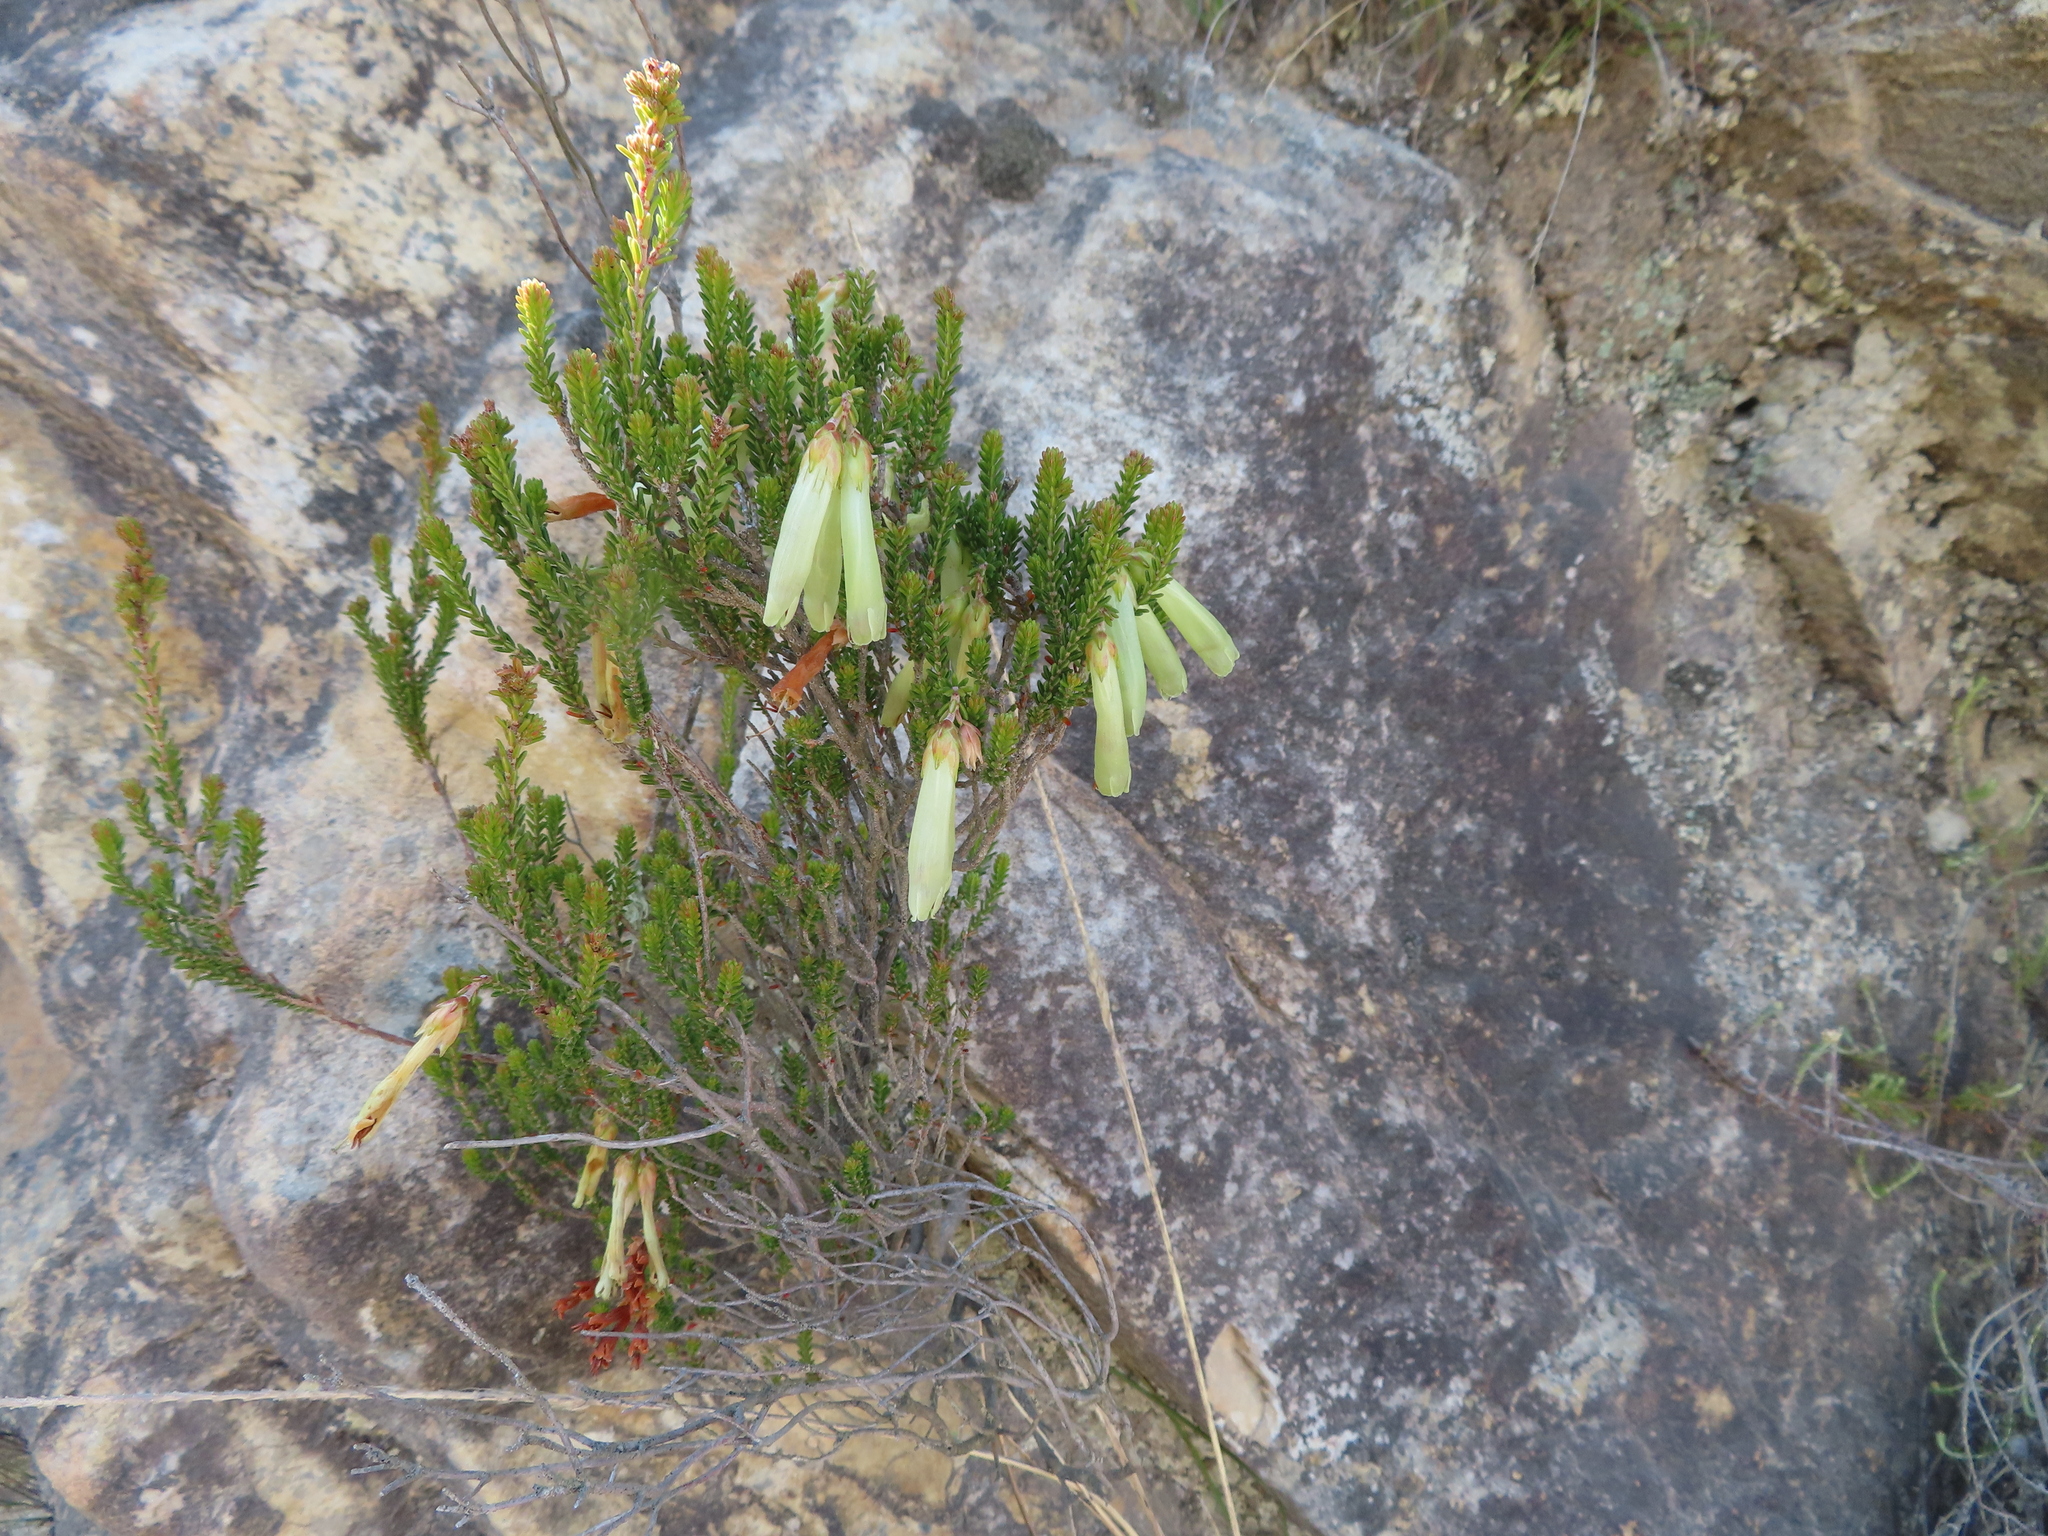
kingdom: Plantae
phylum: Tracheophyta
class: Magnoliopsida
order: Ericales
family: Ericaceae
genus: Erica
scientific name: Erica viridiflora
